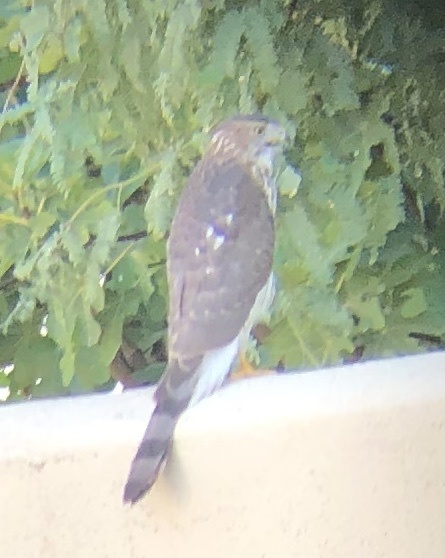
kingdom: Animalia
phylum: Chordata
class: Aves
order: Accipitriformes
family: Accipitridae
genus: Accipiter
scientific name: Accipiter cooperii
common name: Cooper's hawk
